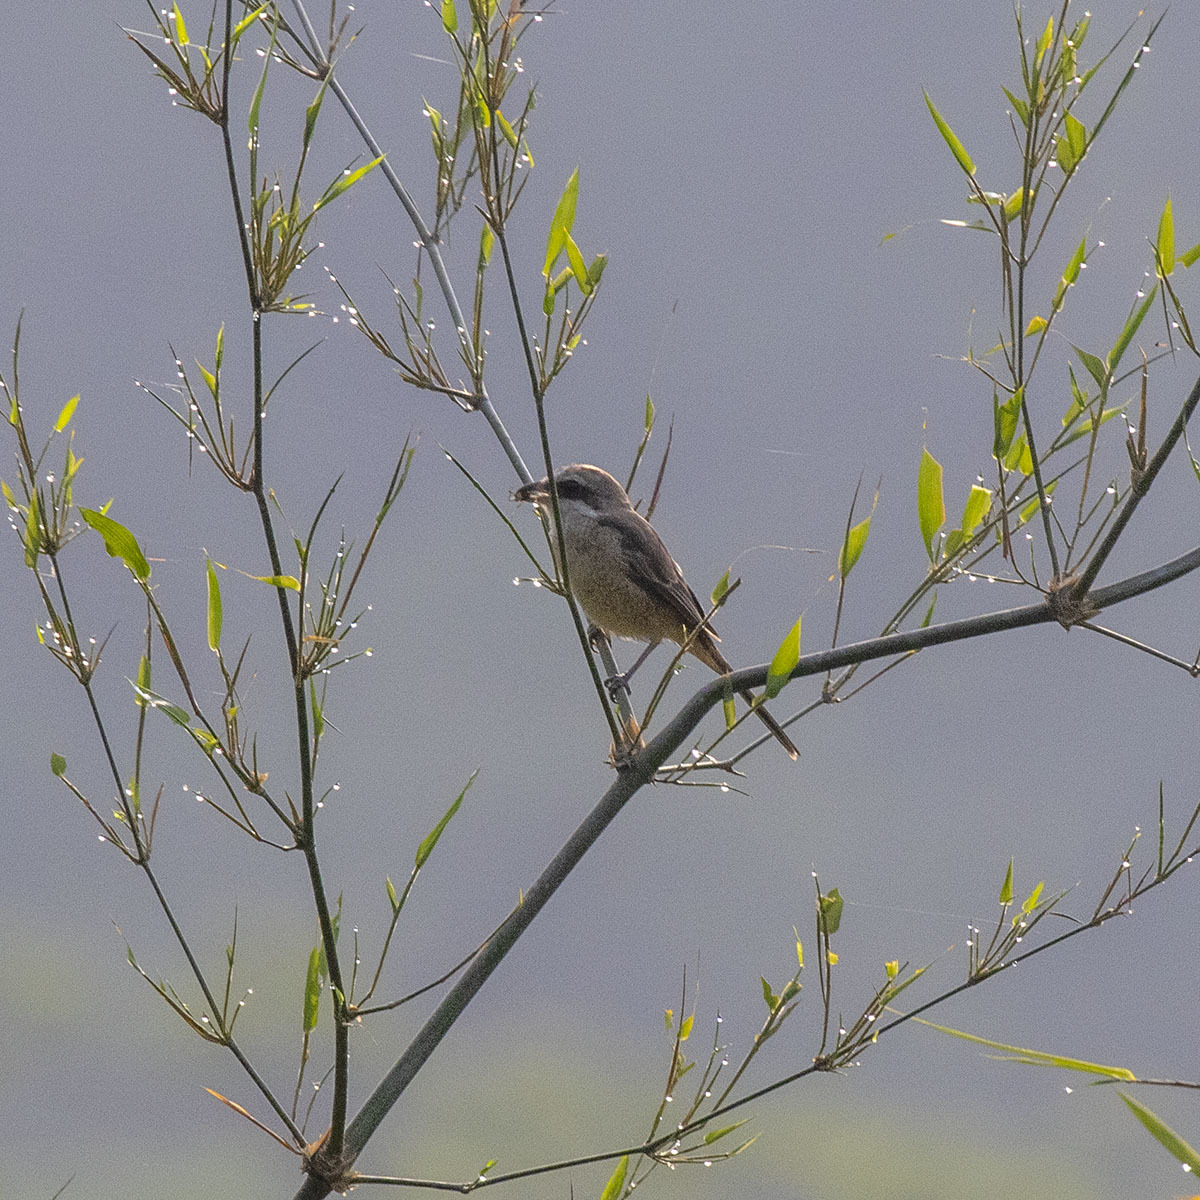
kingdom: Animalia
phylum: Chordata
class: Aves
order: Passeriformes
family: Laniidae
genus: Lanius
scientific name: Lanius cristatus
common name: Brown shrike
